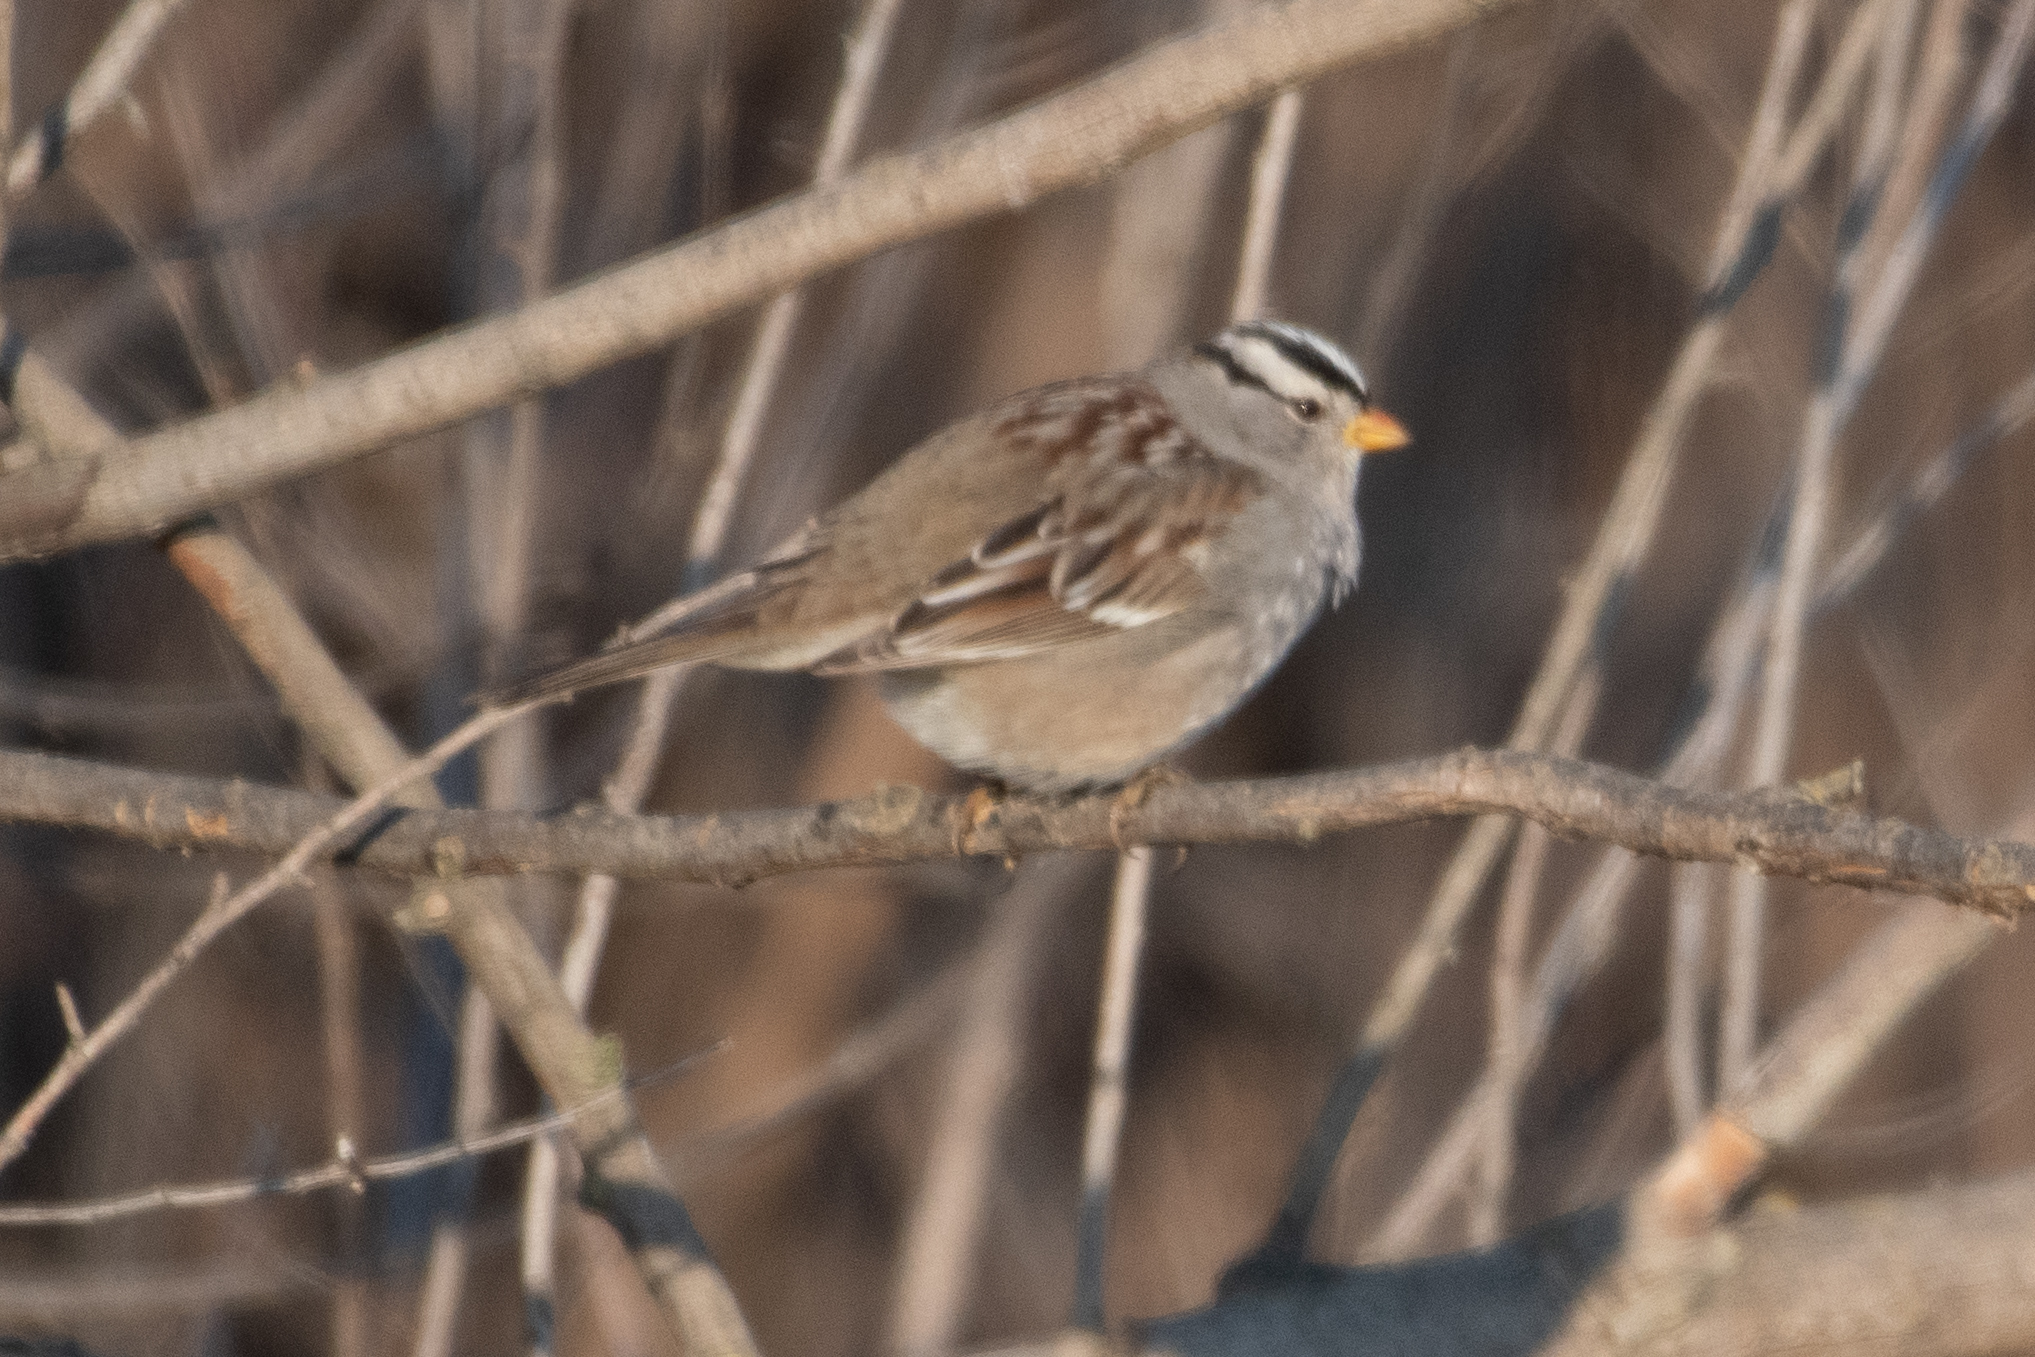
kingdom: Animalia
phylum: Chordata
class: Aves
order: Passeriformes
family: Passerellidae
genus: Zonotrichia
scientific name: Zonotrichia leucophrys
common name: White-crowned sparrow
